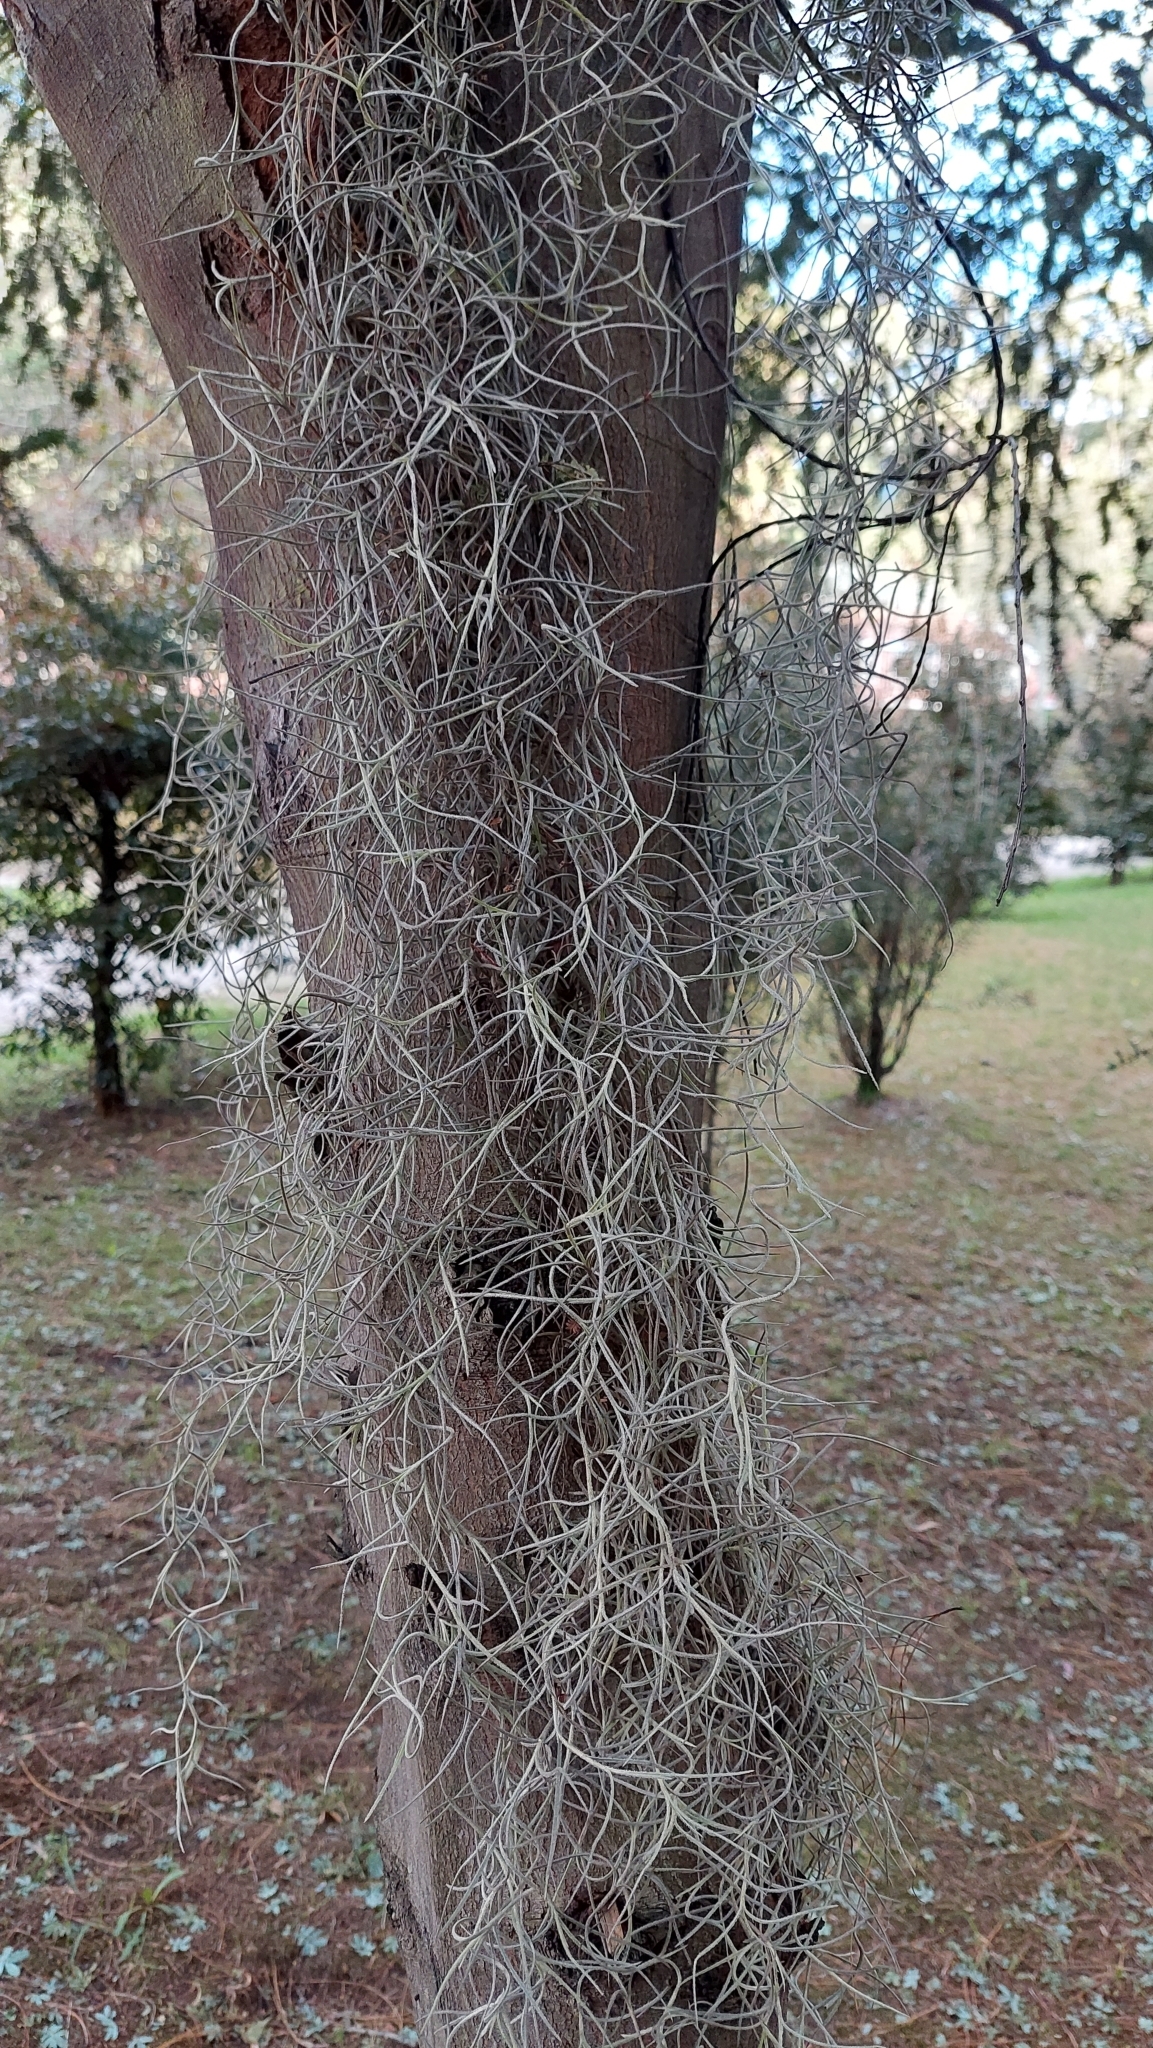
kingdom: Plantae
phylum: Tracheophyta
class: Liliopsida
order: Poales
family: Bromeliaceae
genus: Tillandsia
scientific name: Tillandsia usneoides
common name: Spanish moss
